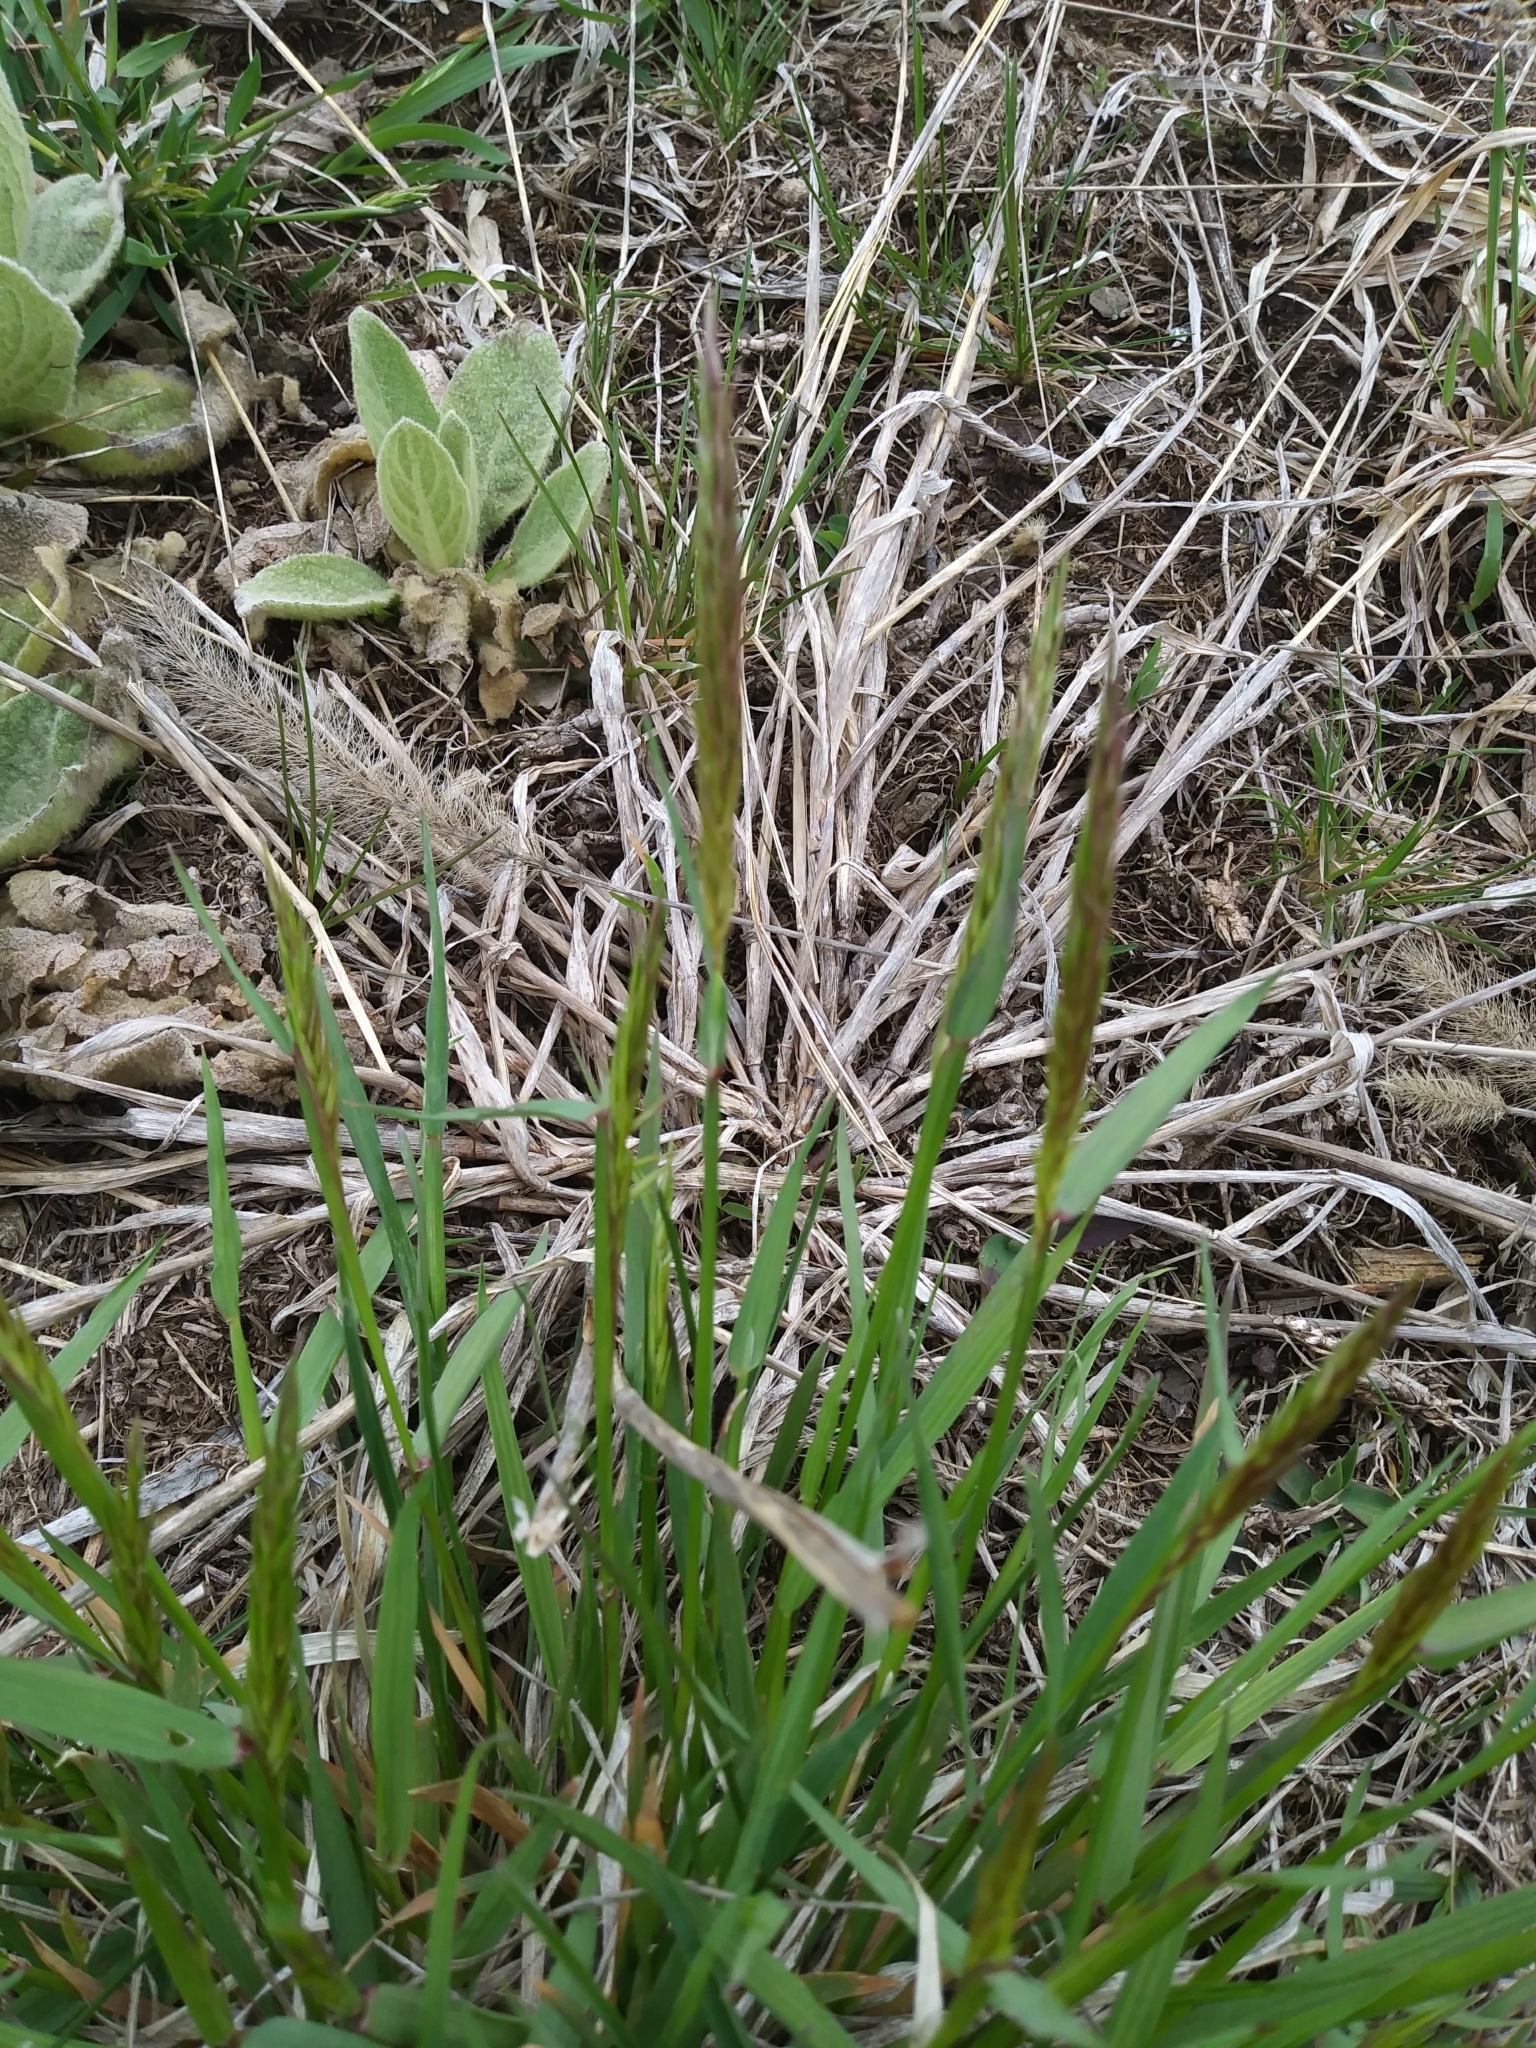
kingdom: Plantae
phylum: Tracheophyta
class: Liliopsida
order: Poales
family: Poaceae
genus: Anthoxanthum
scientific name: Anthoxanthum odoratum
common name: Sweet vernalgrass
